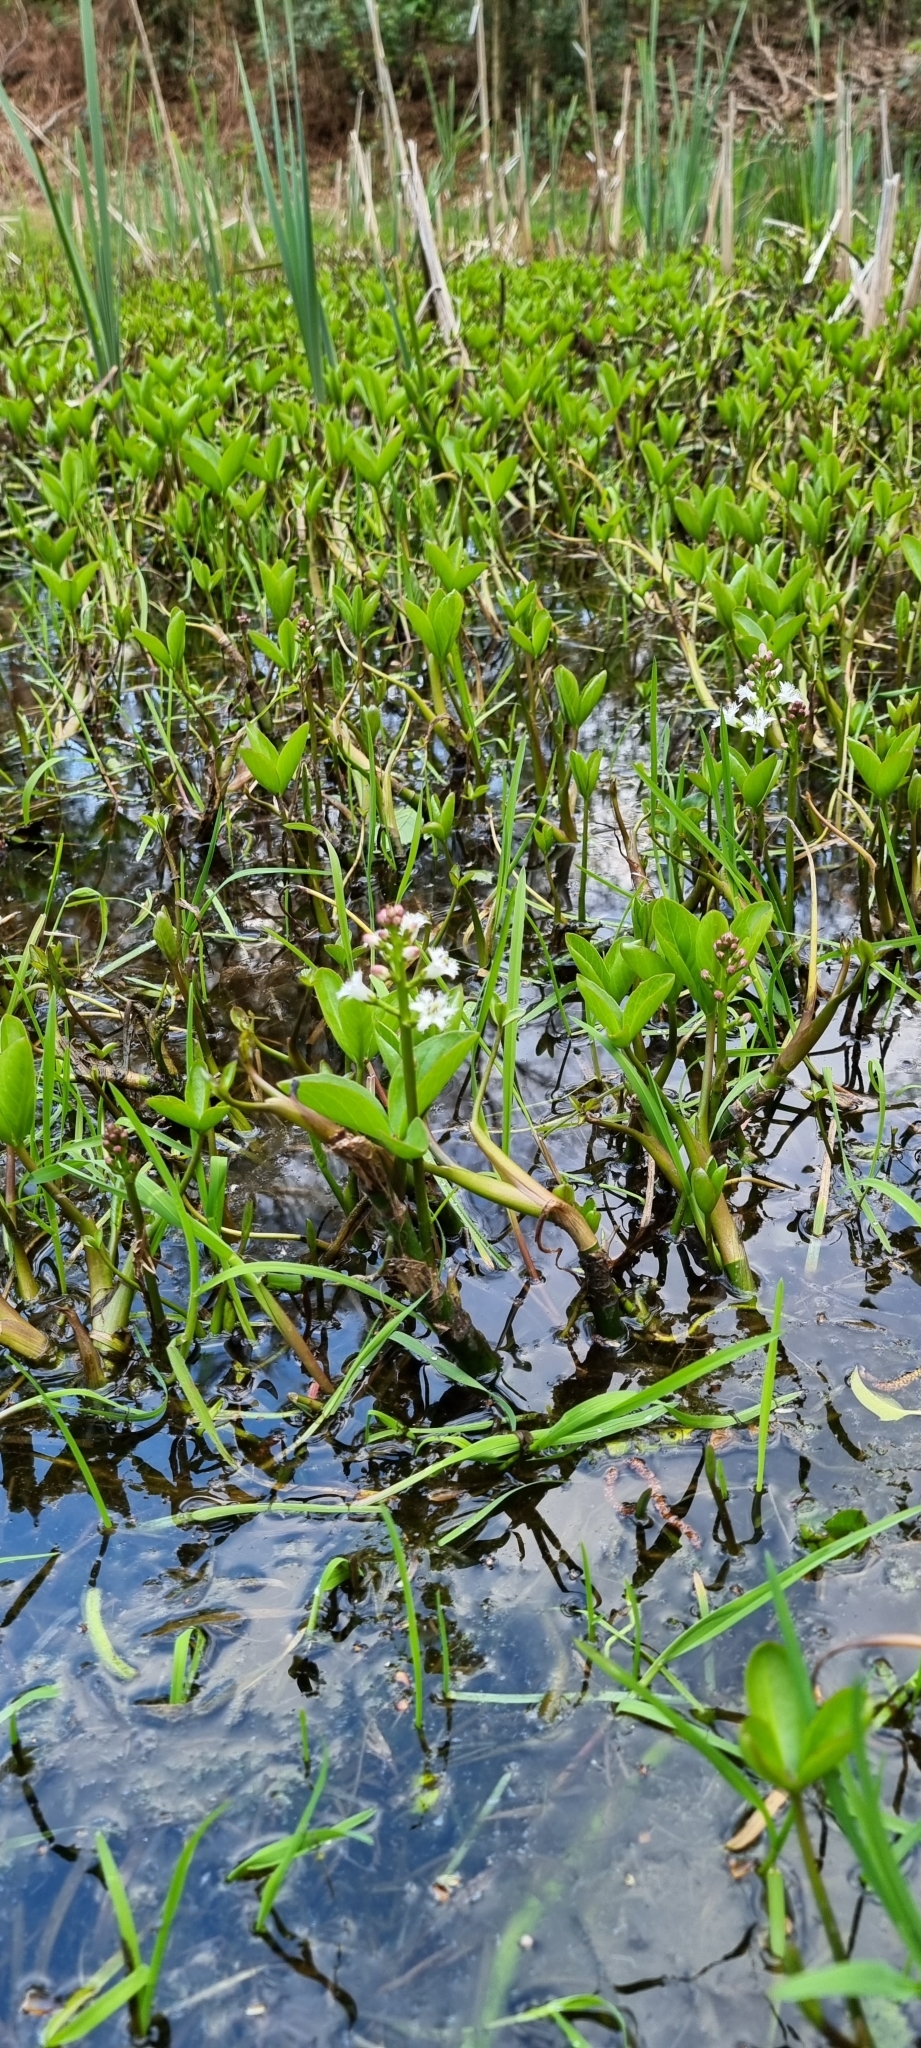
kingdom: Plantae
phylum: Tracheophyta
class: Magnoliopsida
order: Asterales
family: Menyanthaceae
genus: Menyanthes
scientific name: Menyanthes trifoliata
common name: Bogbean
